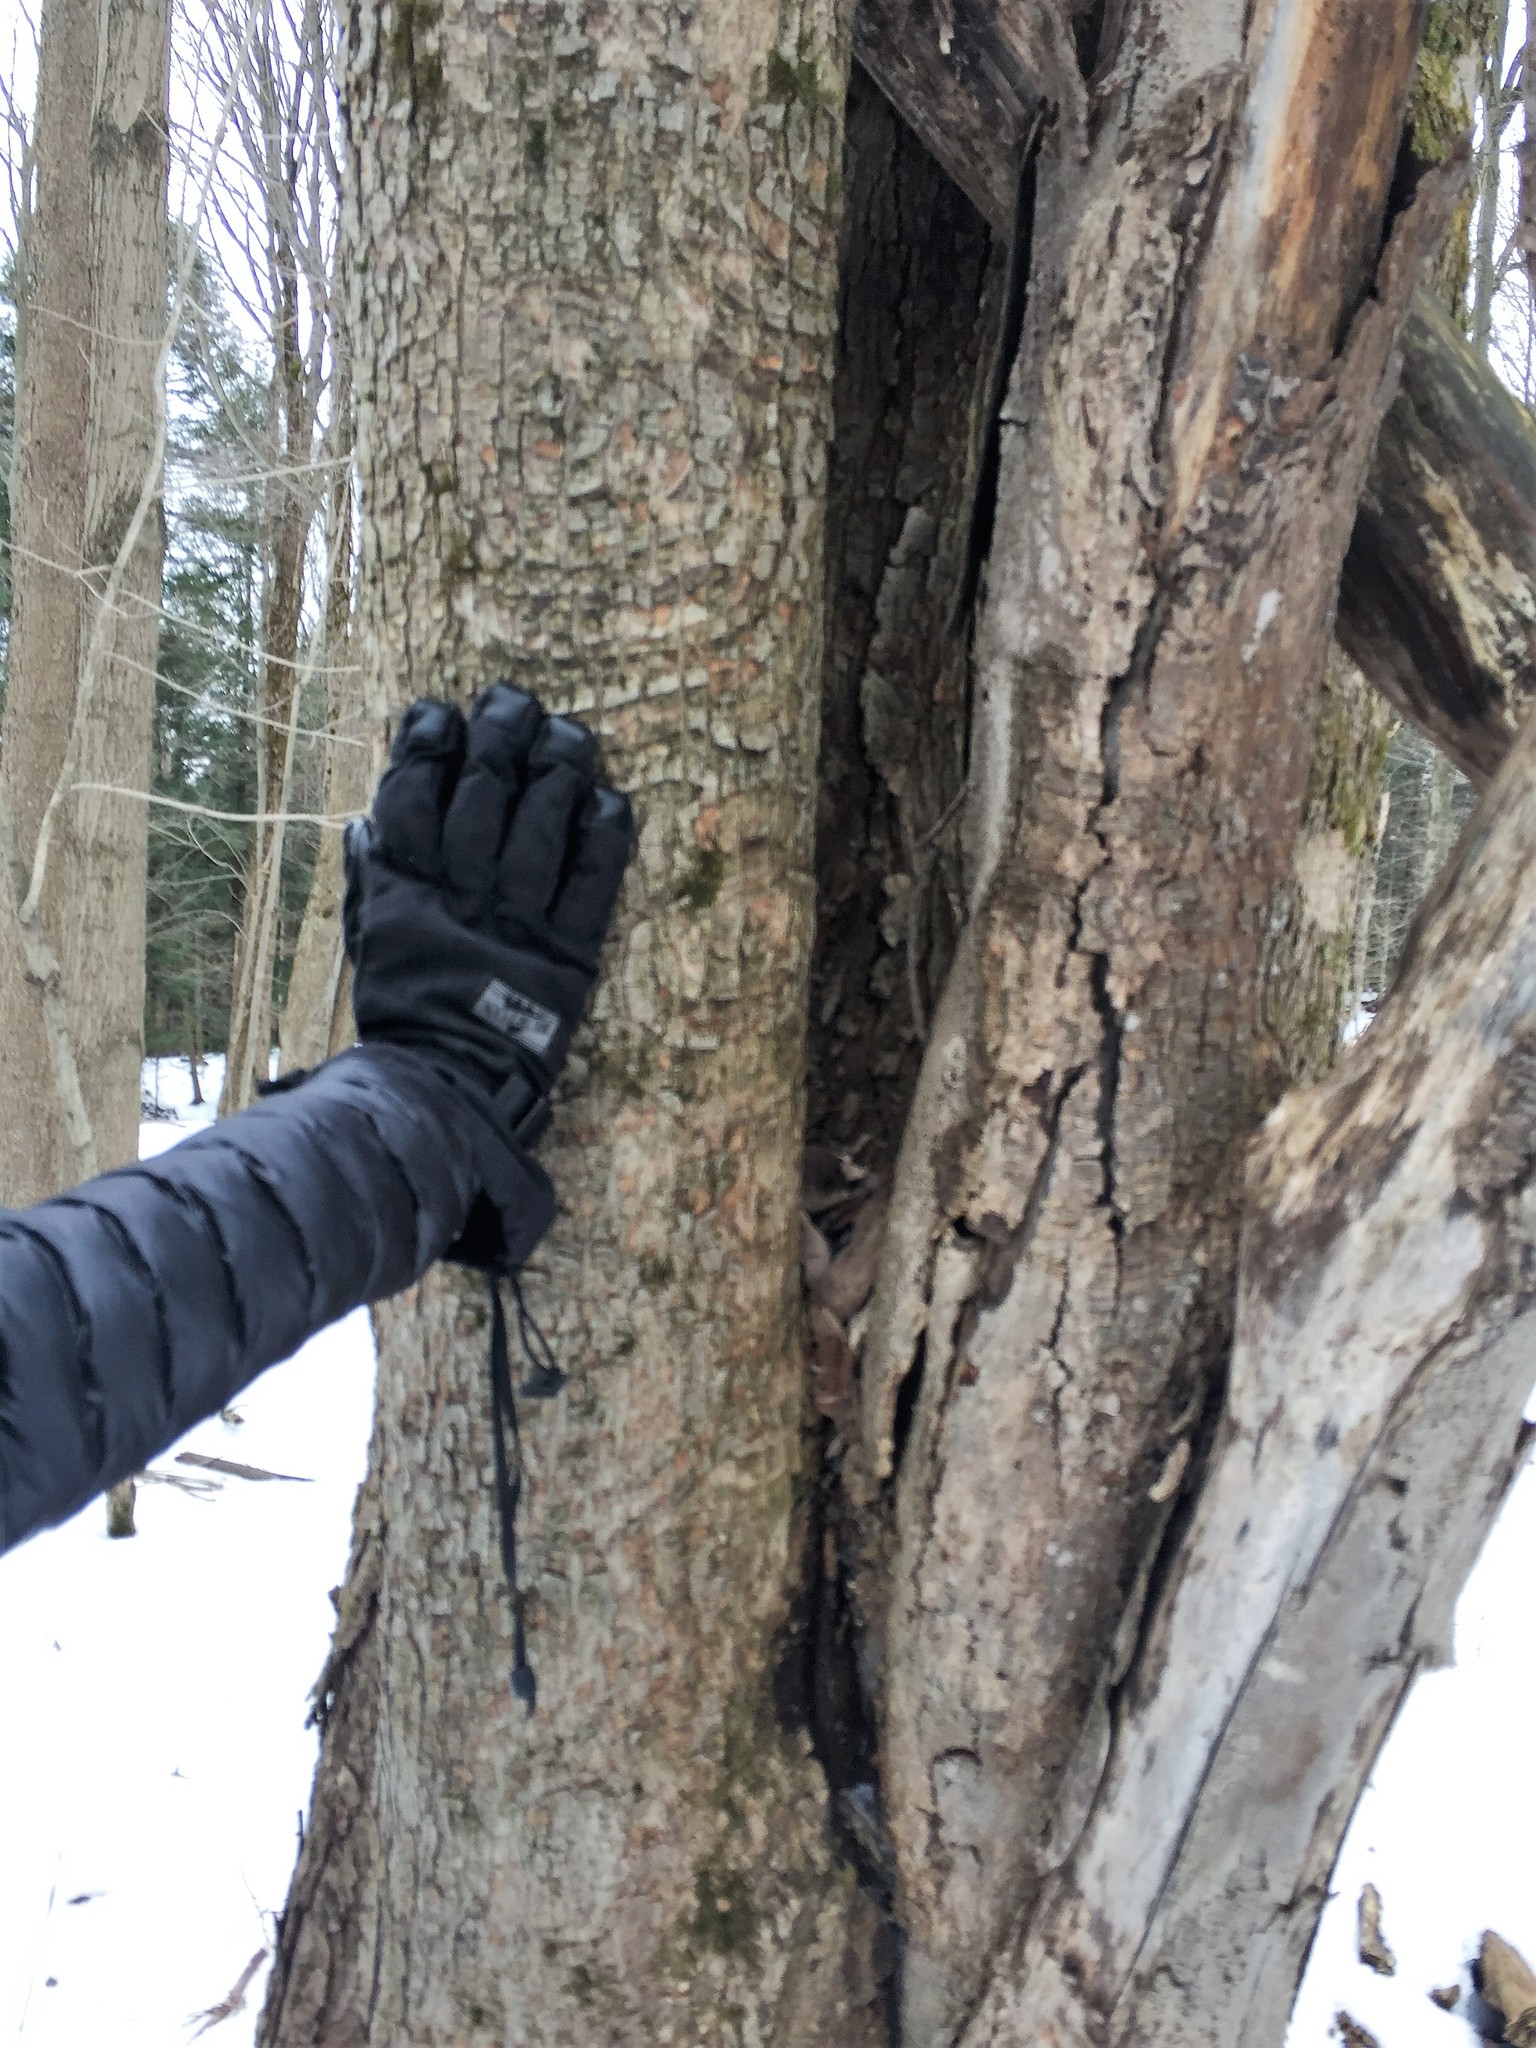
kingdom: Plantae
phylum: Tracheophyta
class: Magnoliopsida
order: Sapindales
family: Sapindaceae
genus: Acer
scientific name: Acer rubrum
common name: Red maple
